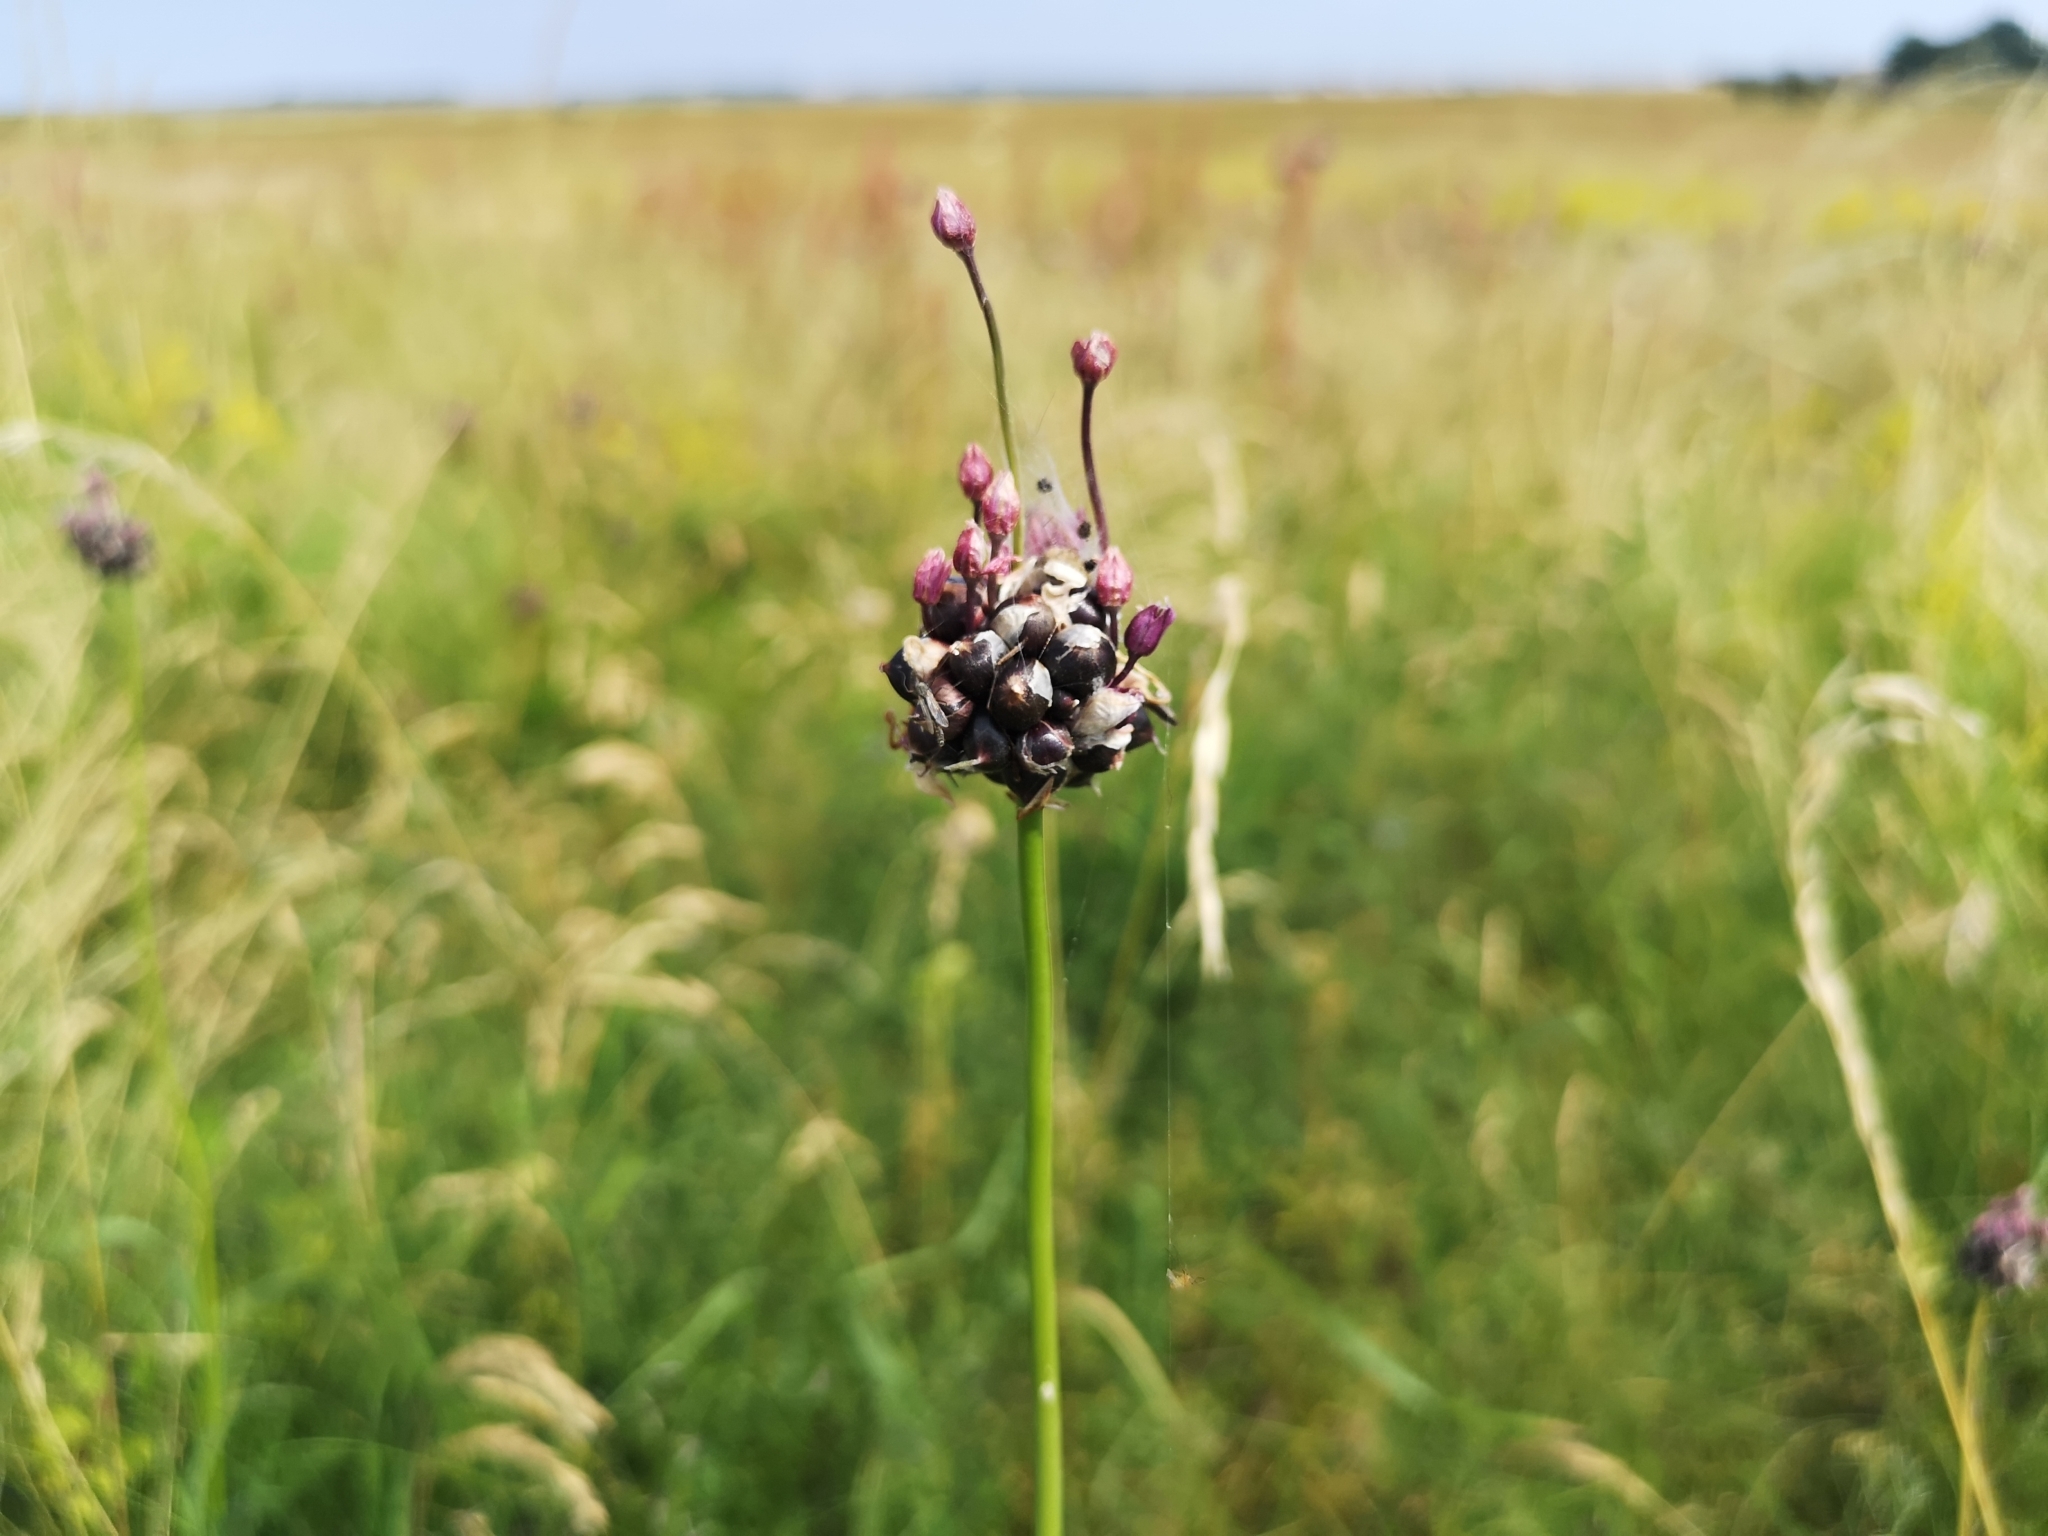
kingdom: Plantae
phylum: Tracheophyta
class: Liliopsida
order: Asparagales
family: Amaryllidaceae
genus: Allium
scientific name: Allium scorodoprasum
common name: Sand leek
